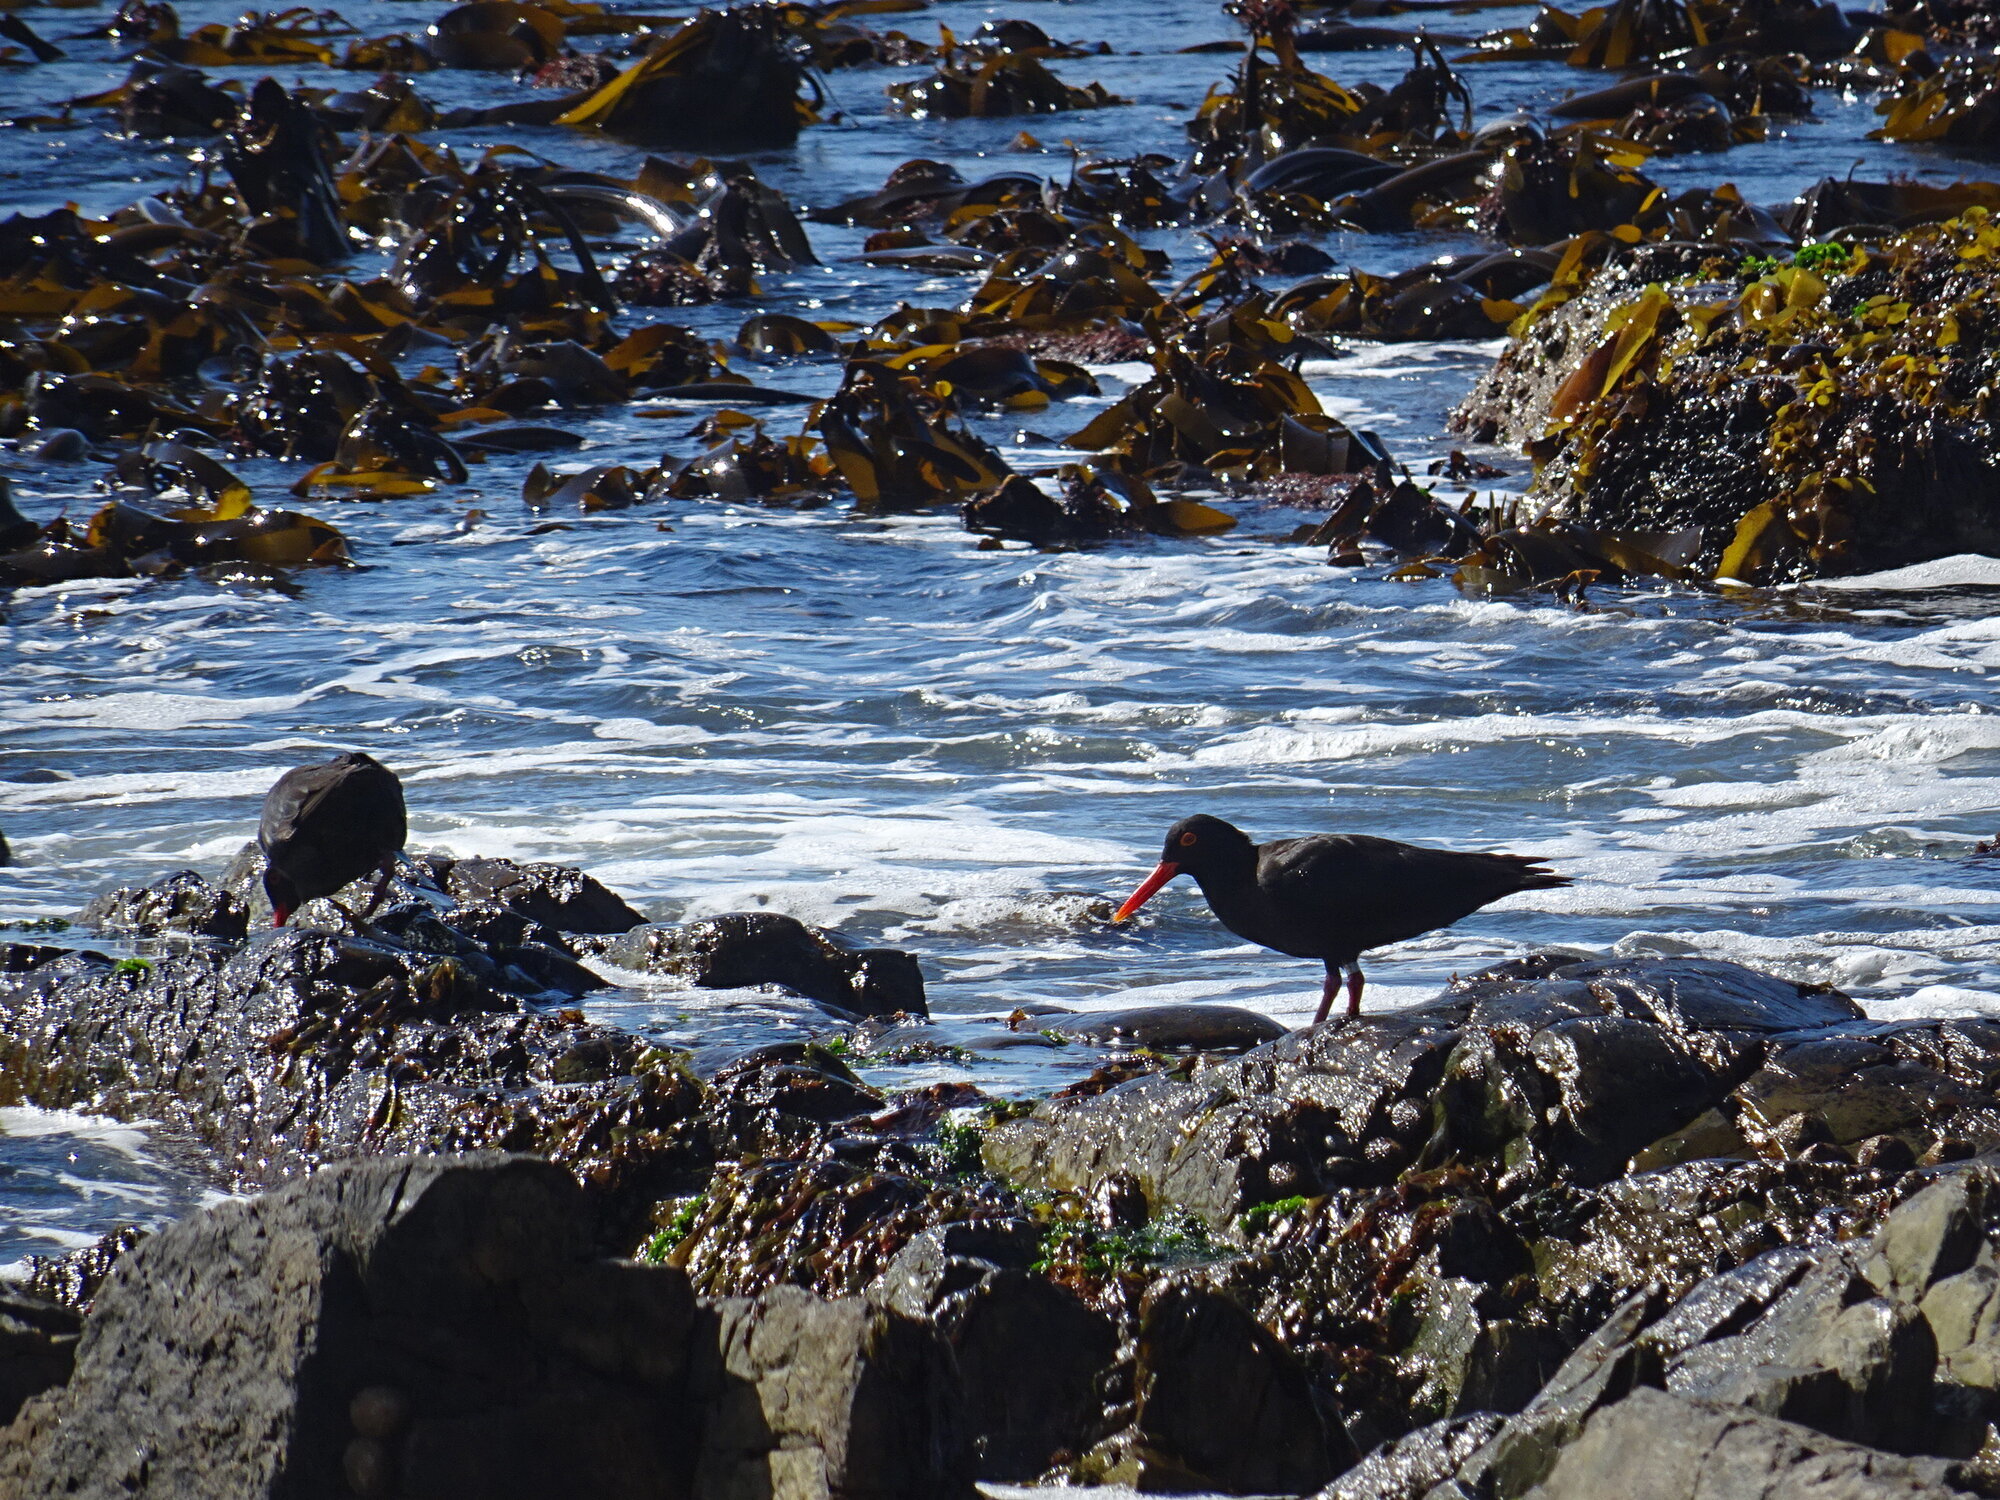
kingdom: Animalia
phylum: Chordata
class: Aves
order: Charadriiformes
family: Haematopodidae
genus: Haematopus
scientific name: Haematopus moquini
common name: African oystercatcher
